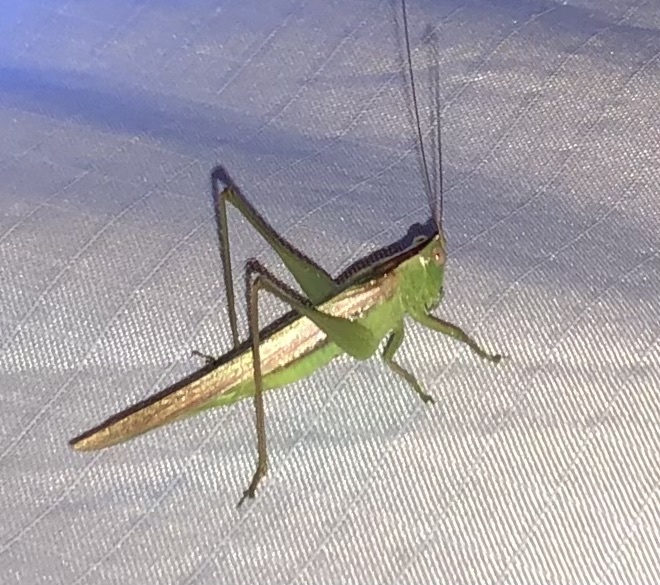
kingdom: Animalia
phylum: Arthropoda
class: Insecta
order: Orthoptera
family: Tettigoniidae
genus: Conocephalus
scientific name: Conocephalus fasciatus
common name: Slender meadow katydid
